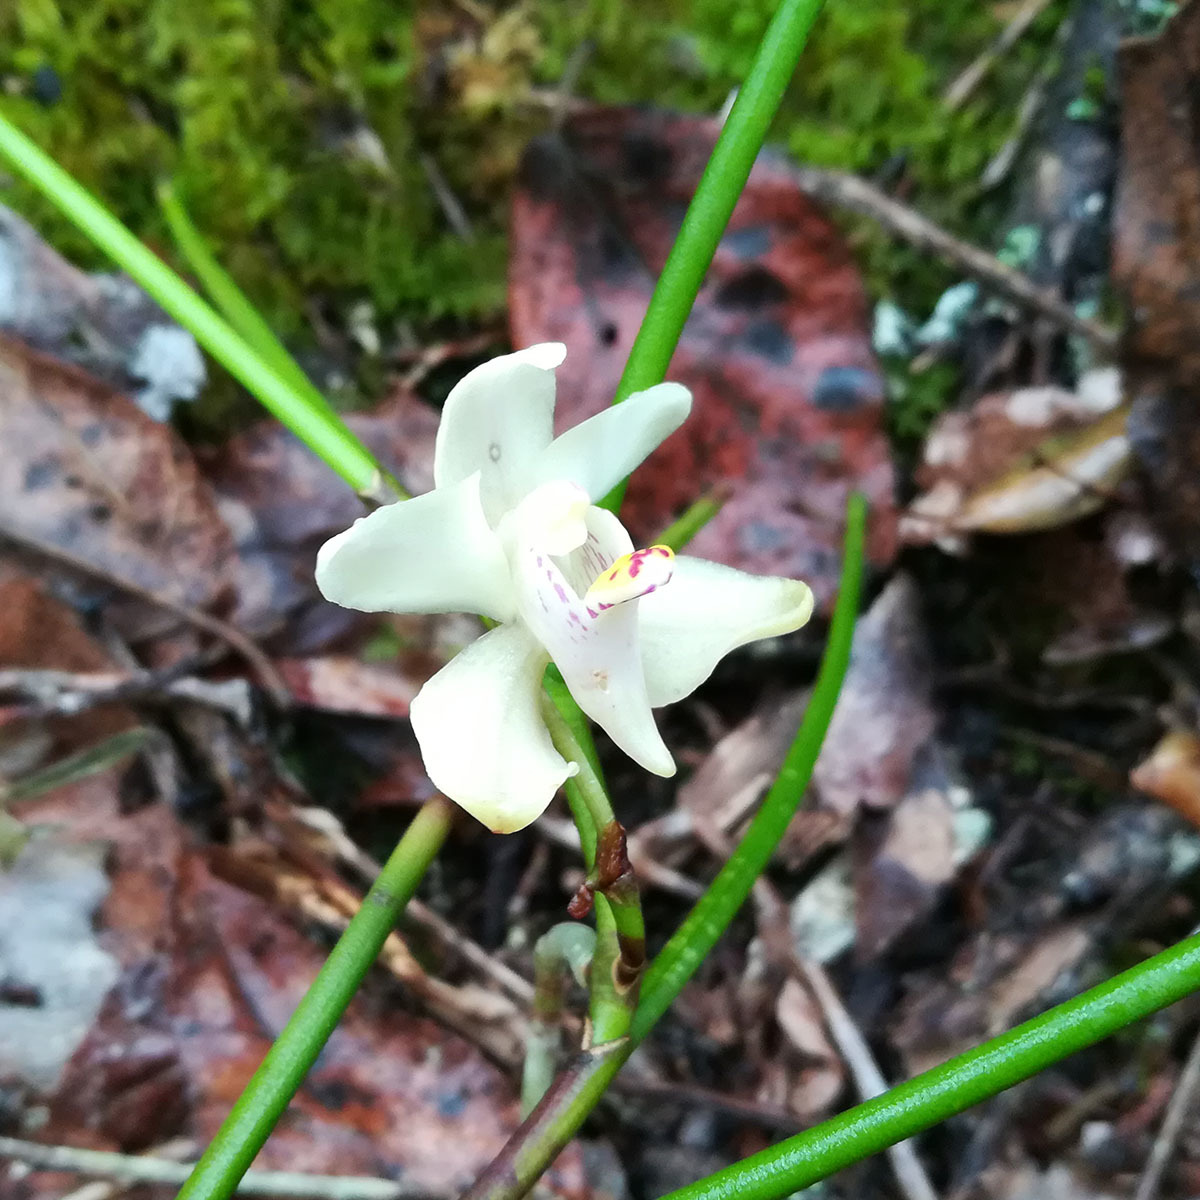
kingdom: Plantae
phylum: Tracheophyta
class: Liliopsida
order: Asparagales
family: Orchidaceae
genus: Thrixspermum
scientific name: Thrixspermum filiforme
